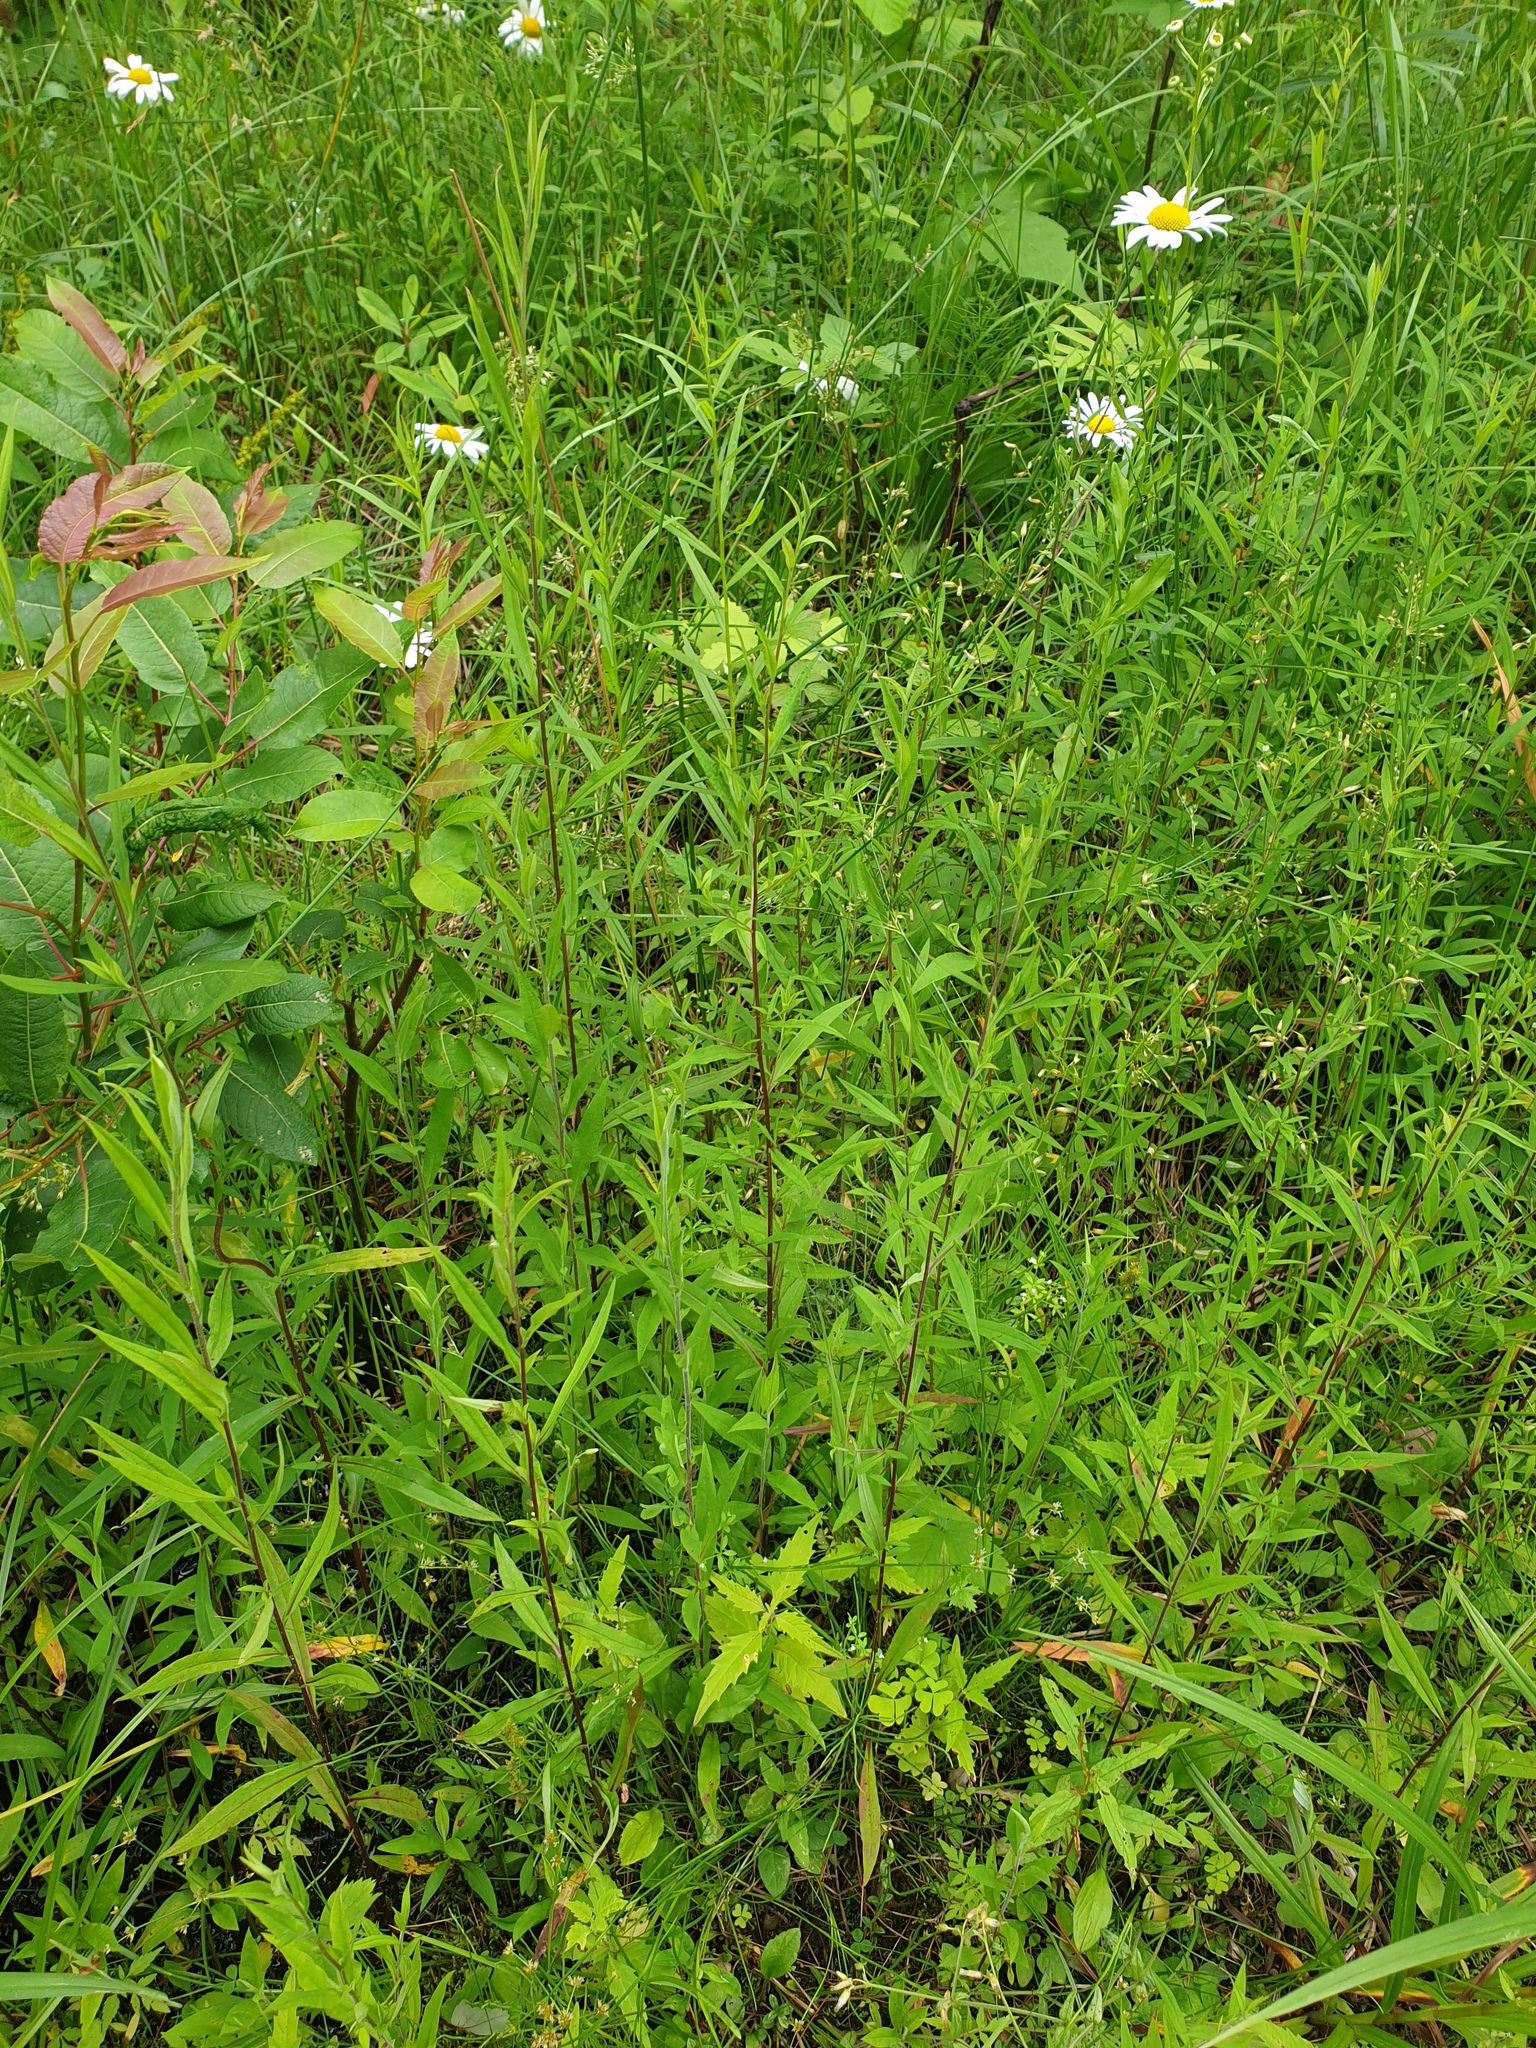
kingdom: Plantae
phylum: Tracheophyta
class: Magnoliopsida
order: Asterales
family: Asteraceae
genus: Symphyotrichum
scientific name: Symphyotrichum lateriflorum
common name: Calico aster
